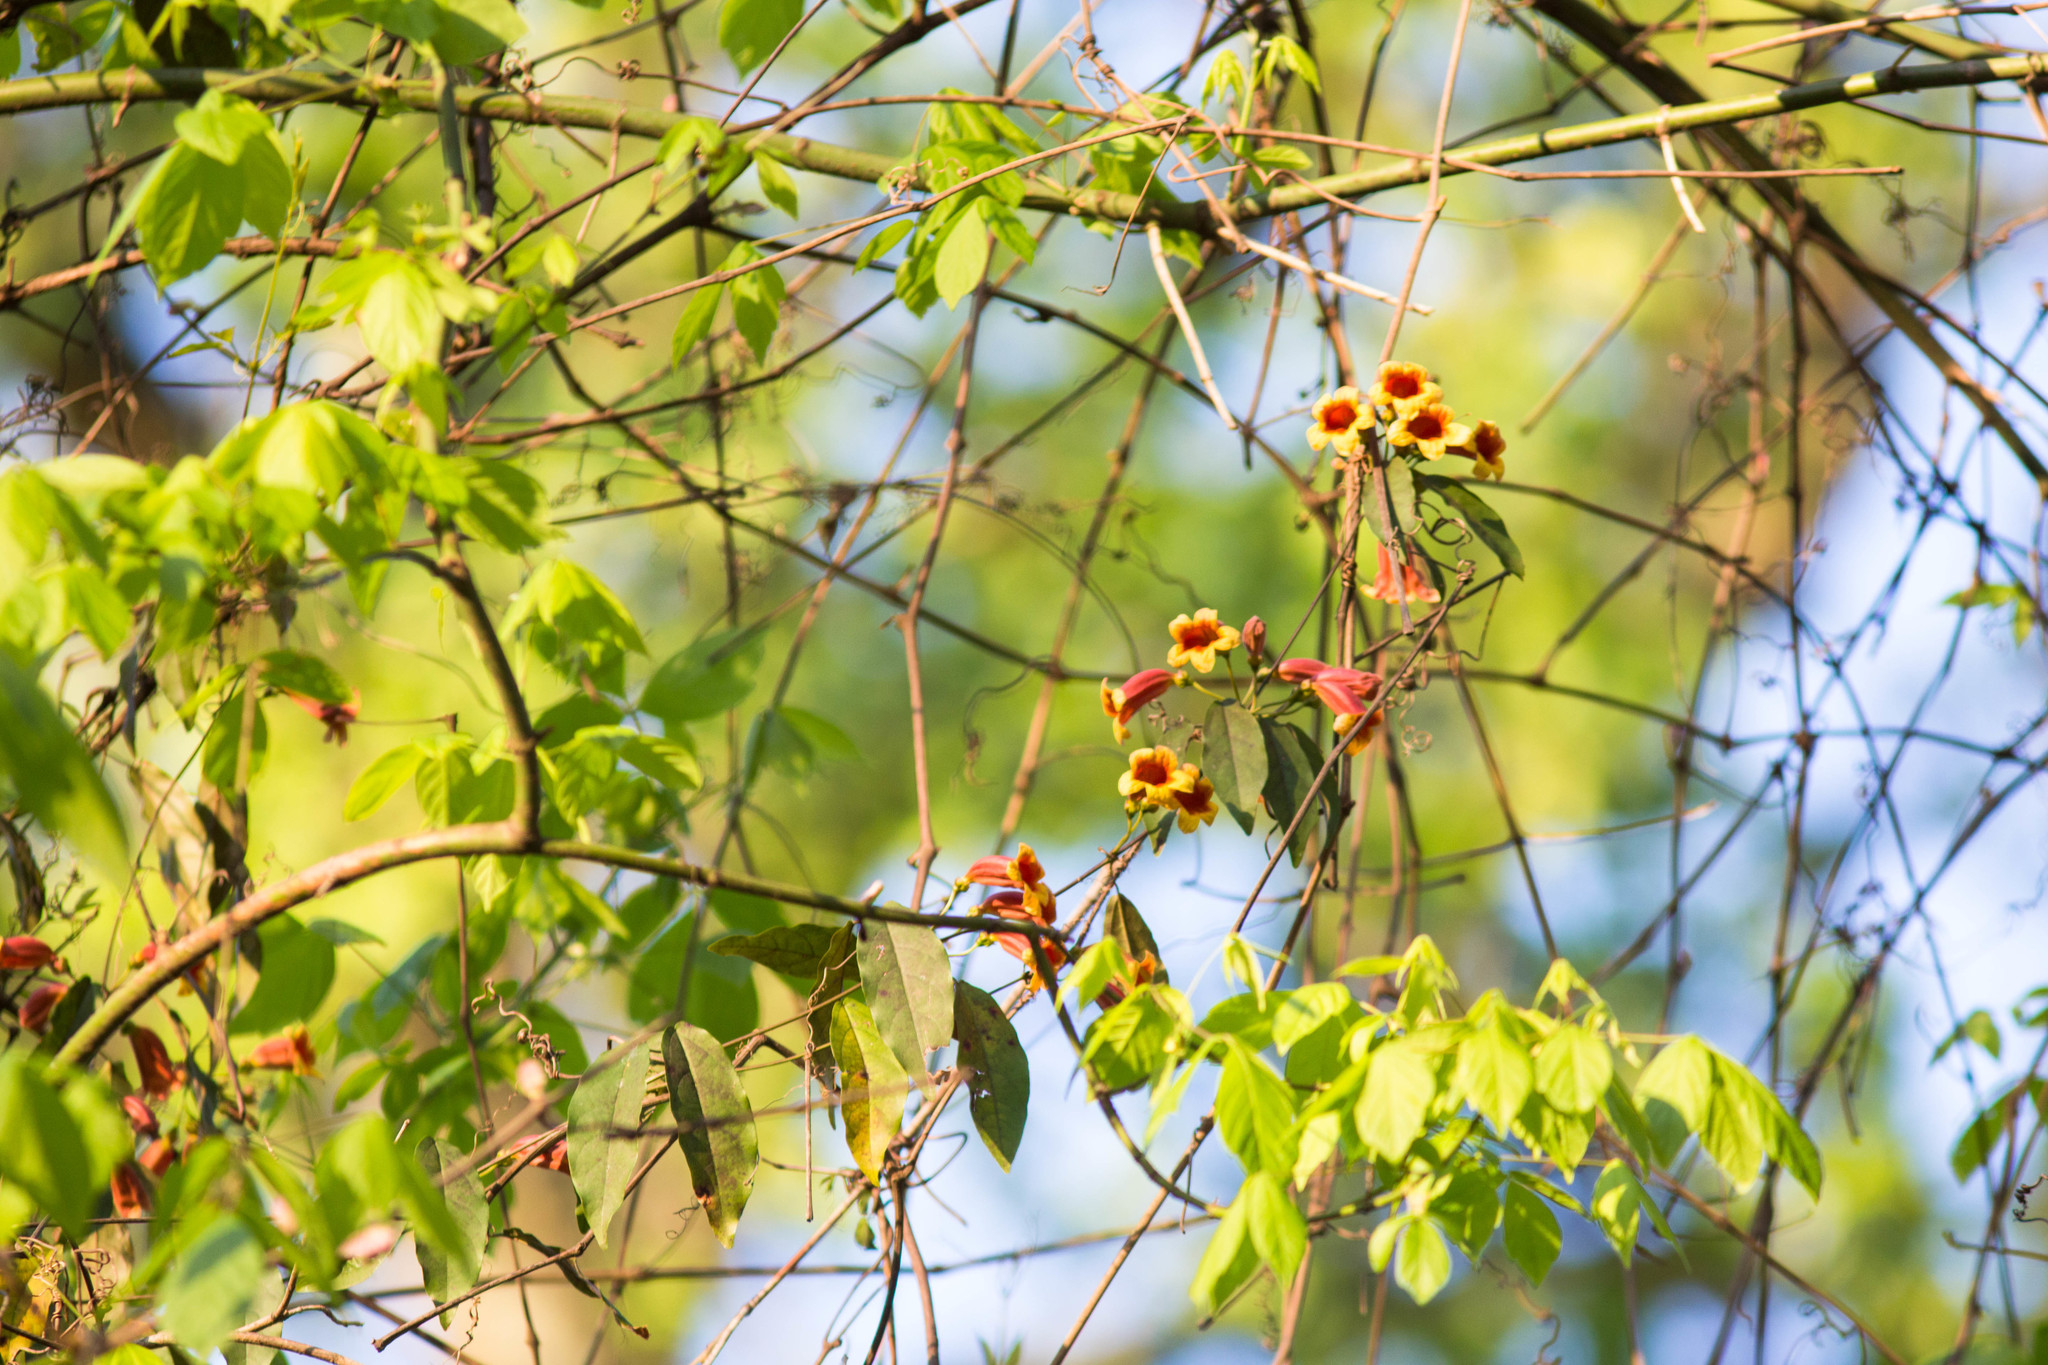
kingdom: Plantae
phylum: Tracheophyta
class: Magnoliopsida
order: Lamiales
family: Bignoniaceae
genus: Bignonia
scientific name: Bignonia capreolata
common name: Crossvine
